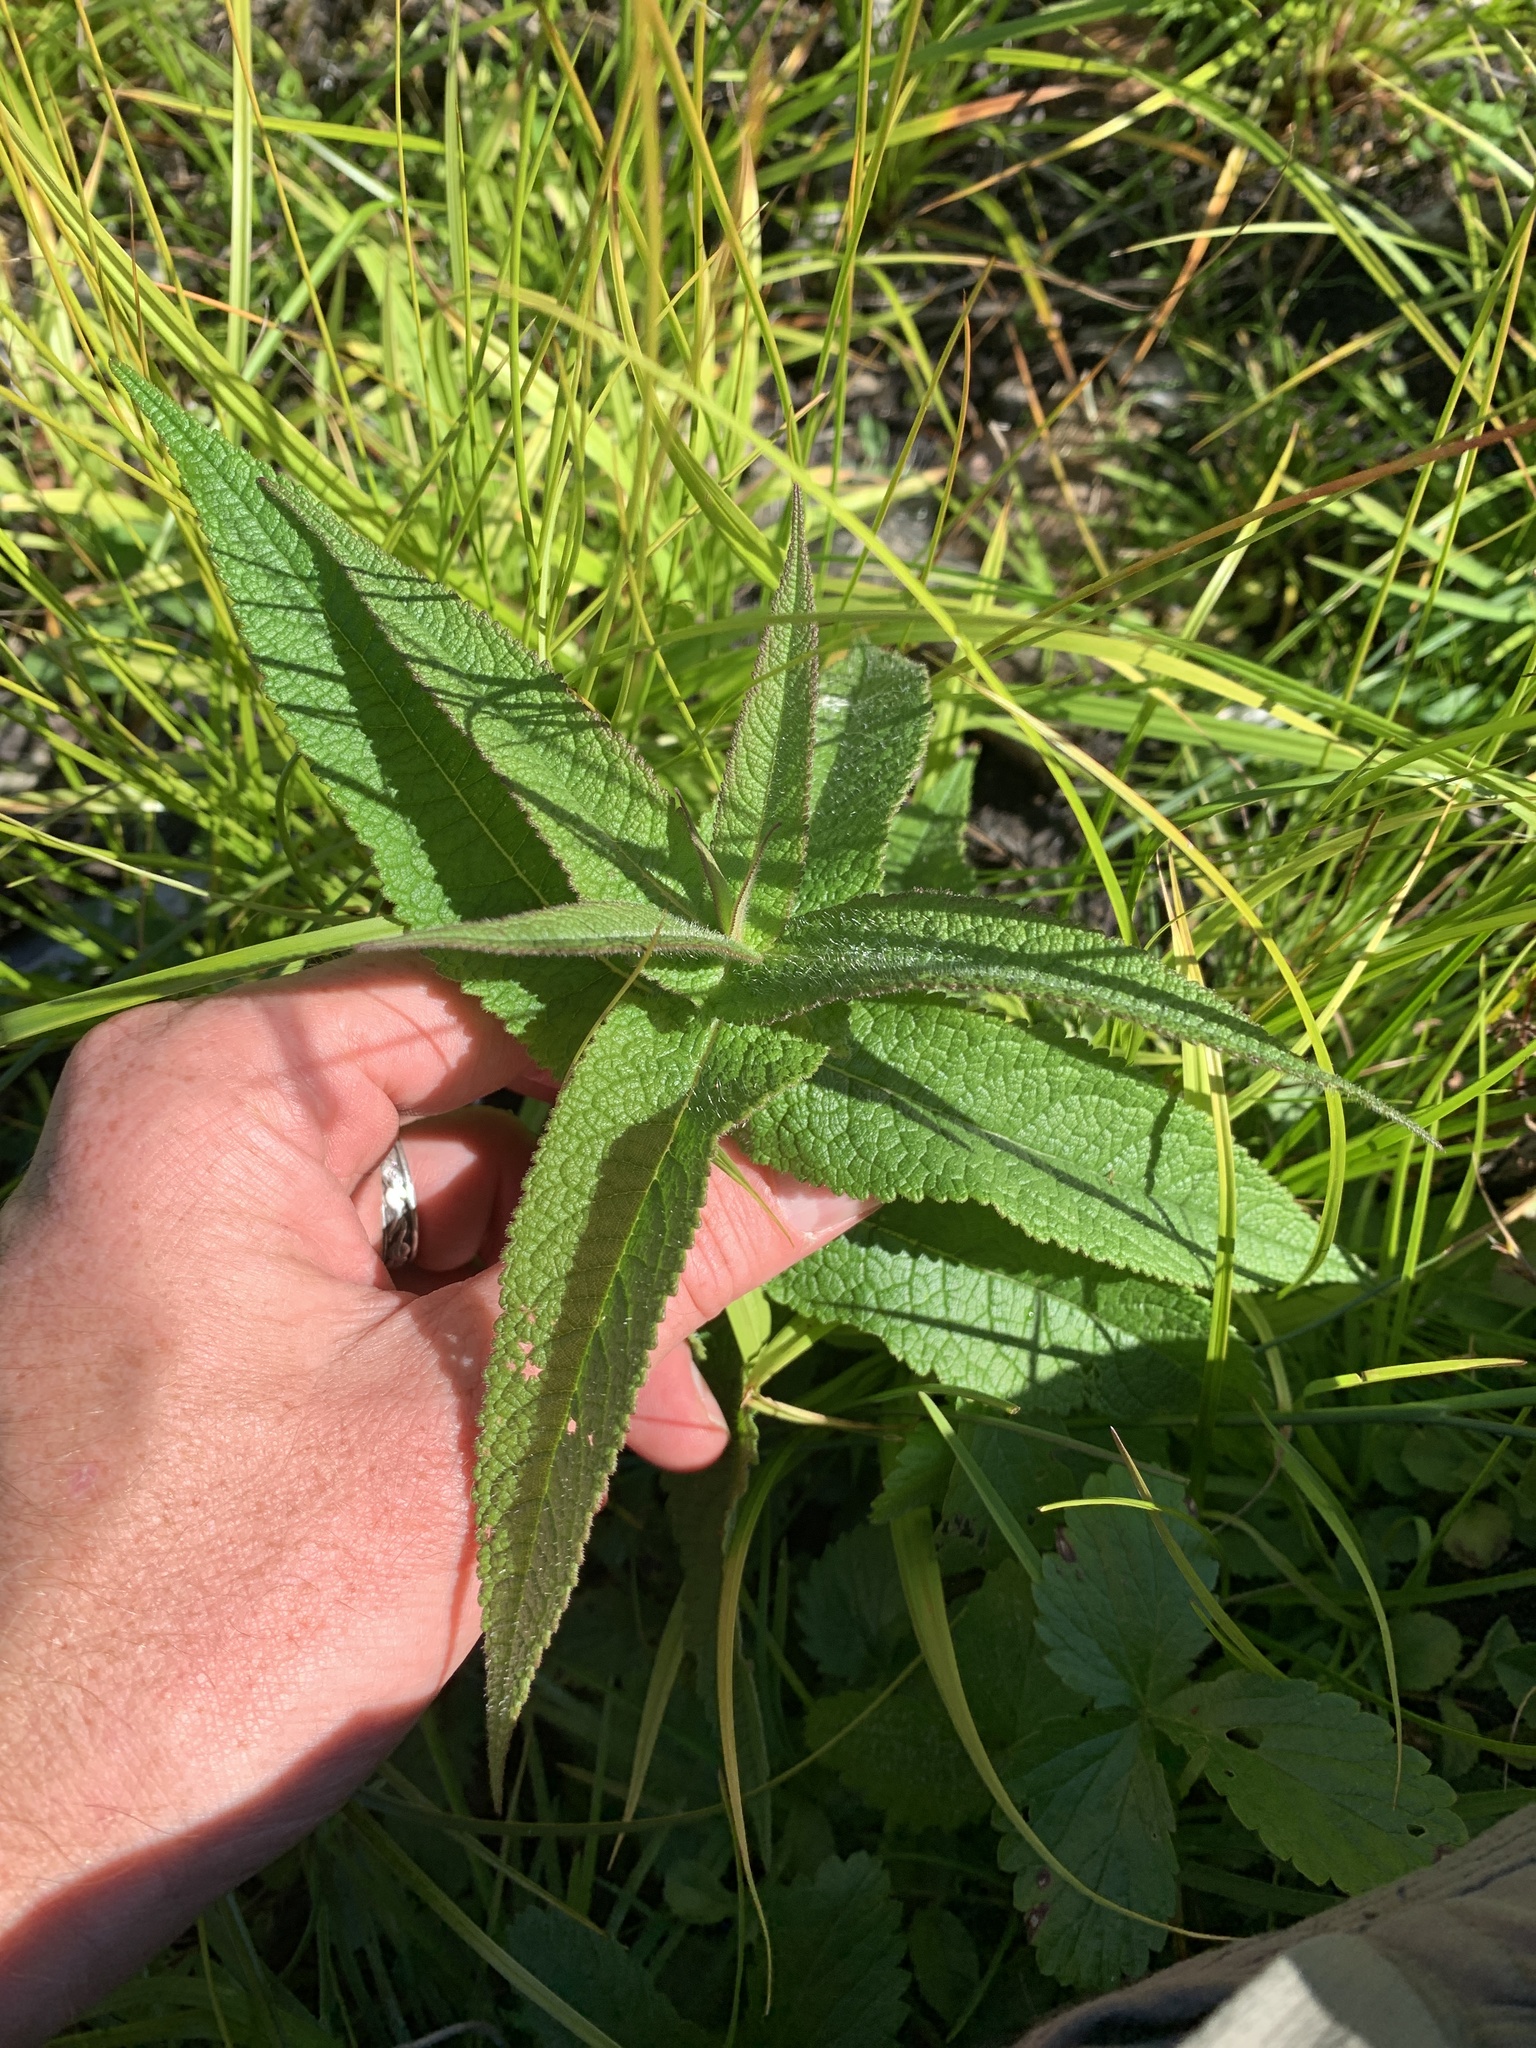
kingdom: Plantae
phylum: Tracheophyta
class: Magnoliopsida
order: Asterales
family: Asteraceae
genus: Eupatorium
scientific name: Eupatorium perfoliatum
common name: Boneset
